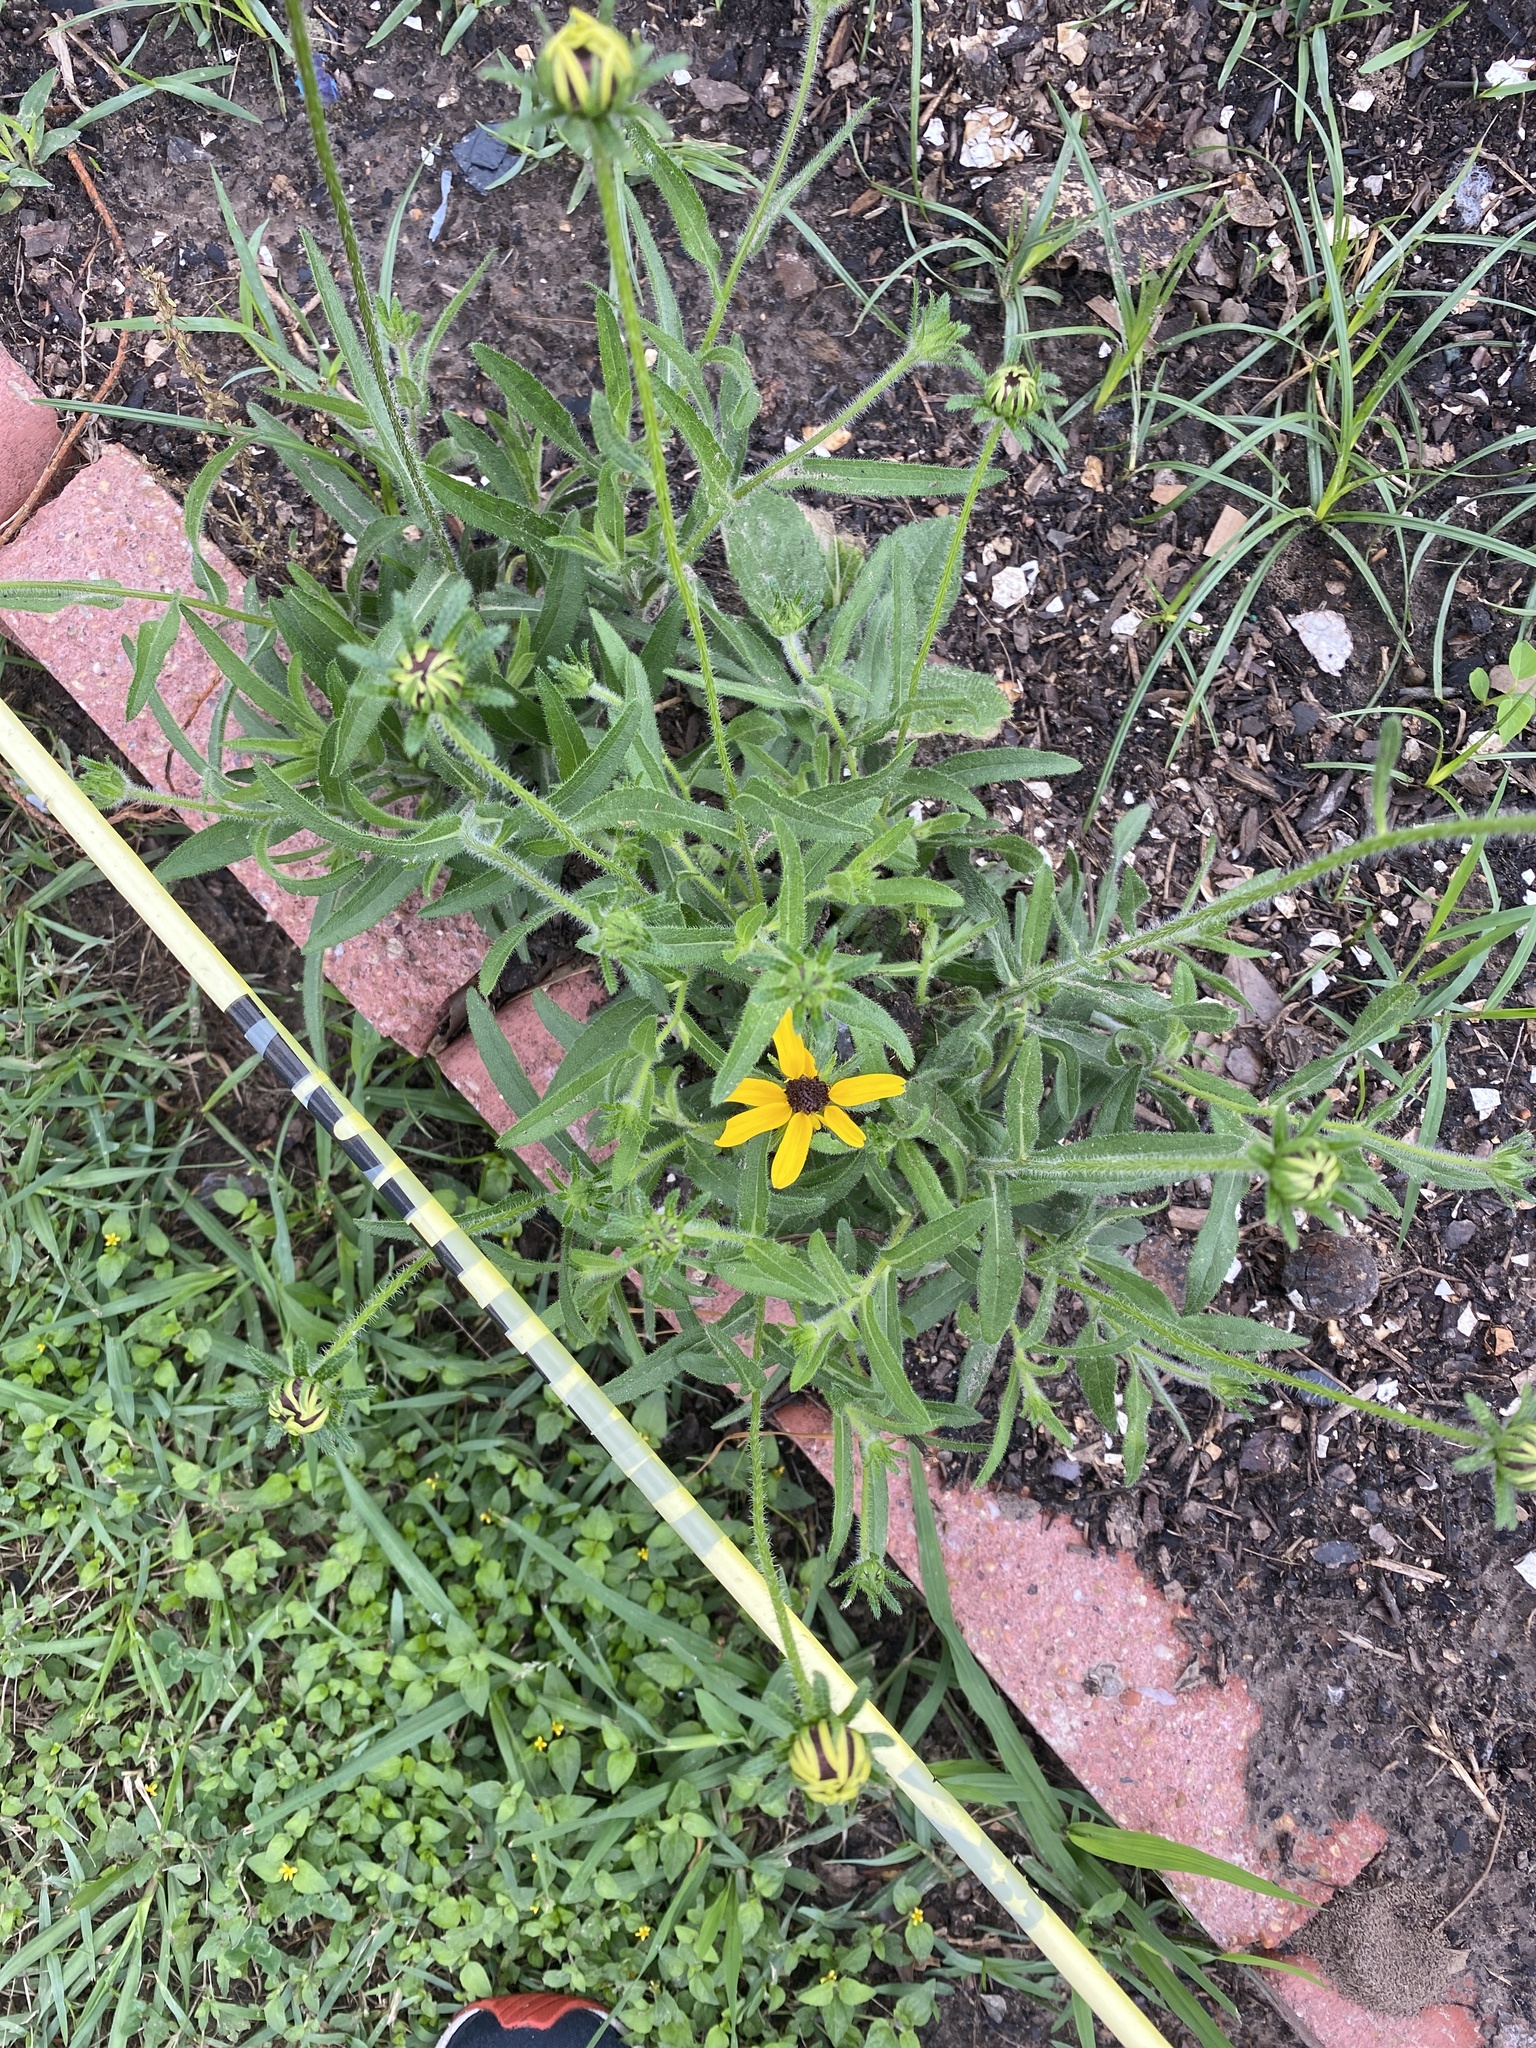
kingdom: Plantae
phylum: Tracheophyta
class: Magnoliopsida
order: Asterales
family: Asteraceae
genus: Rudbeckia
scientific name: Rudbeckia hirta
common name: Black-eyed-susan
